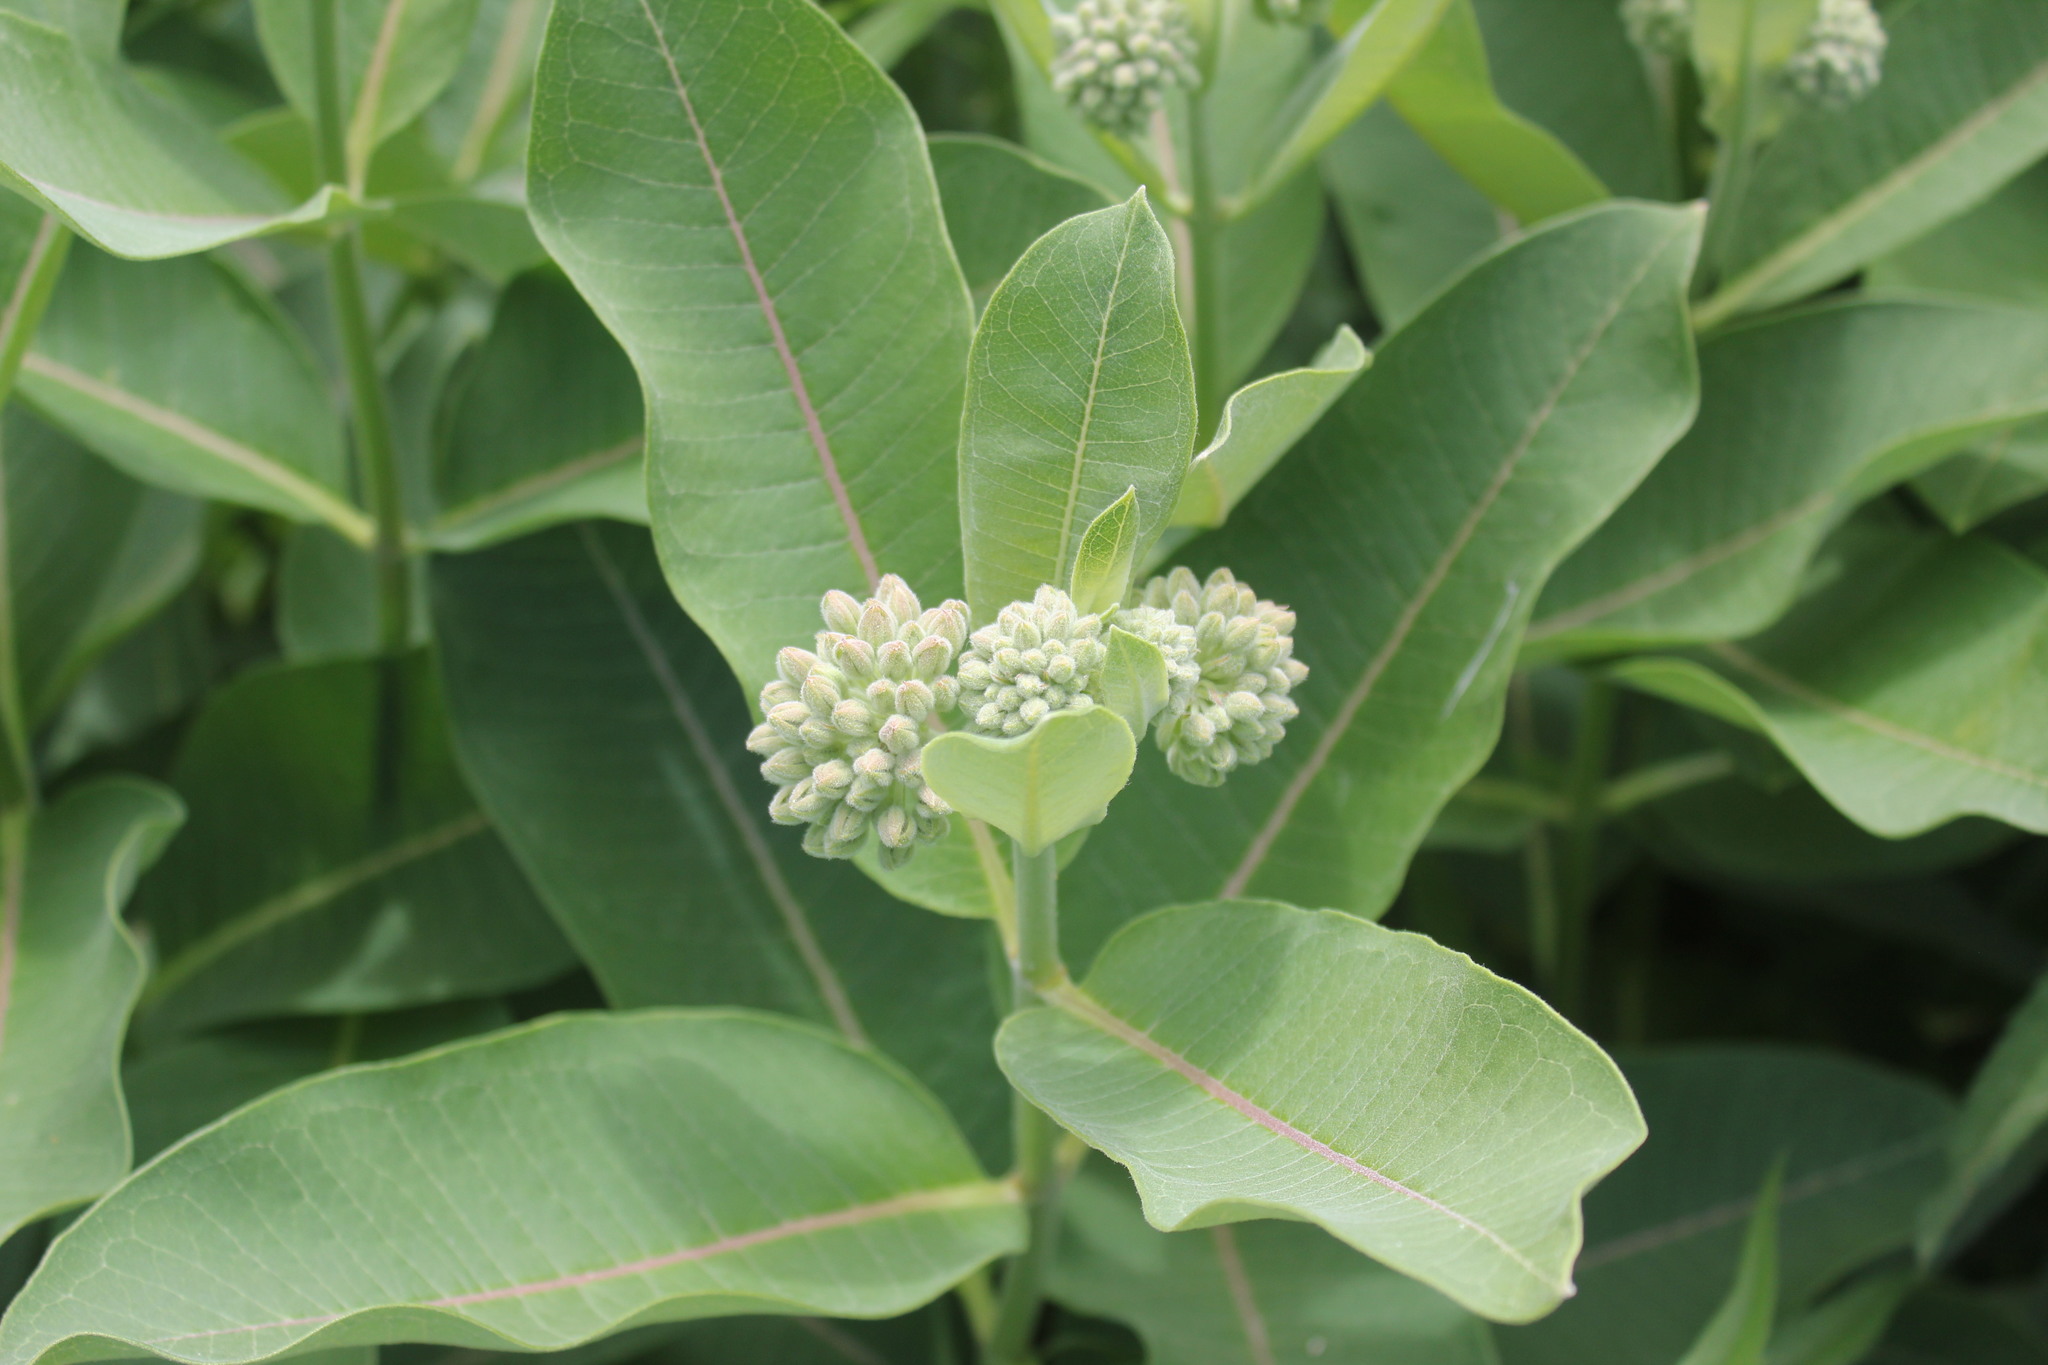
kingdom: Plantae
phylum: Tracheophyta
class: Magnoliopsida
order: Gentianales
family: Apocynaceae
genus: Asclepias
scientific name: Asclepias syriaca
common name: Common milkweed
